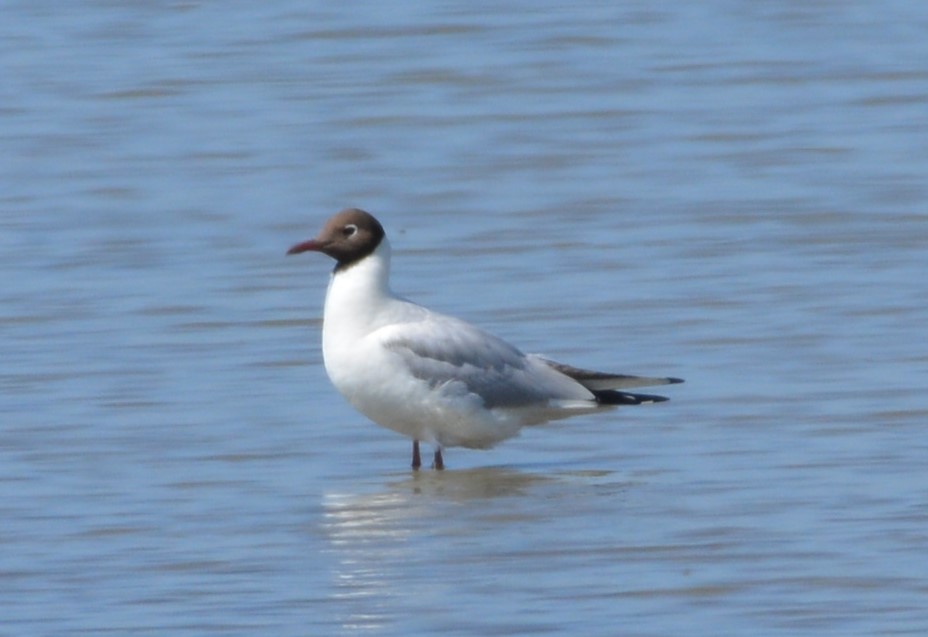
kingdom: Animalia
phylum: Chordata
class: Aves
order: Charadriiformes
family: Laridae
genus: Chroicocephalus
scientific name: Chroicocephalus ridibundus
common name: Black-headed gull
